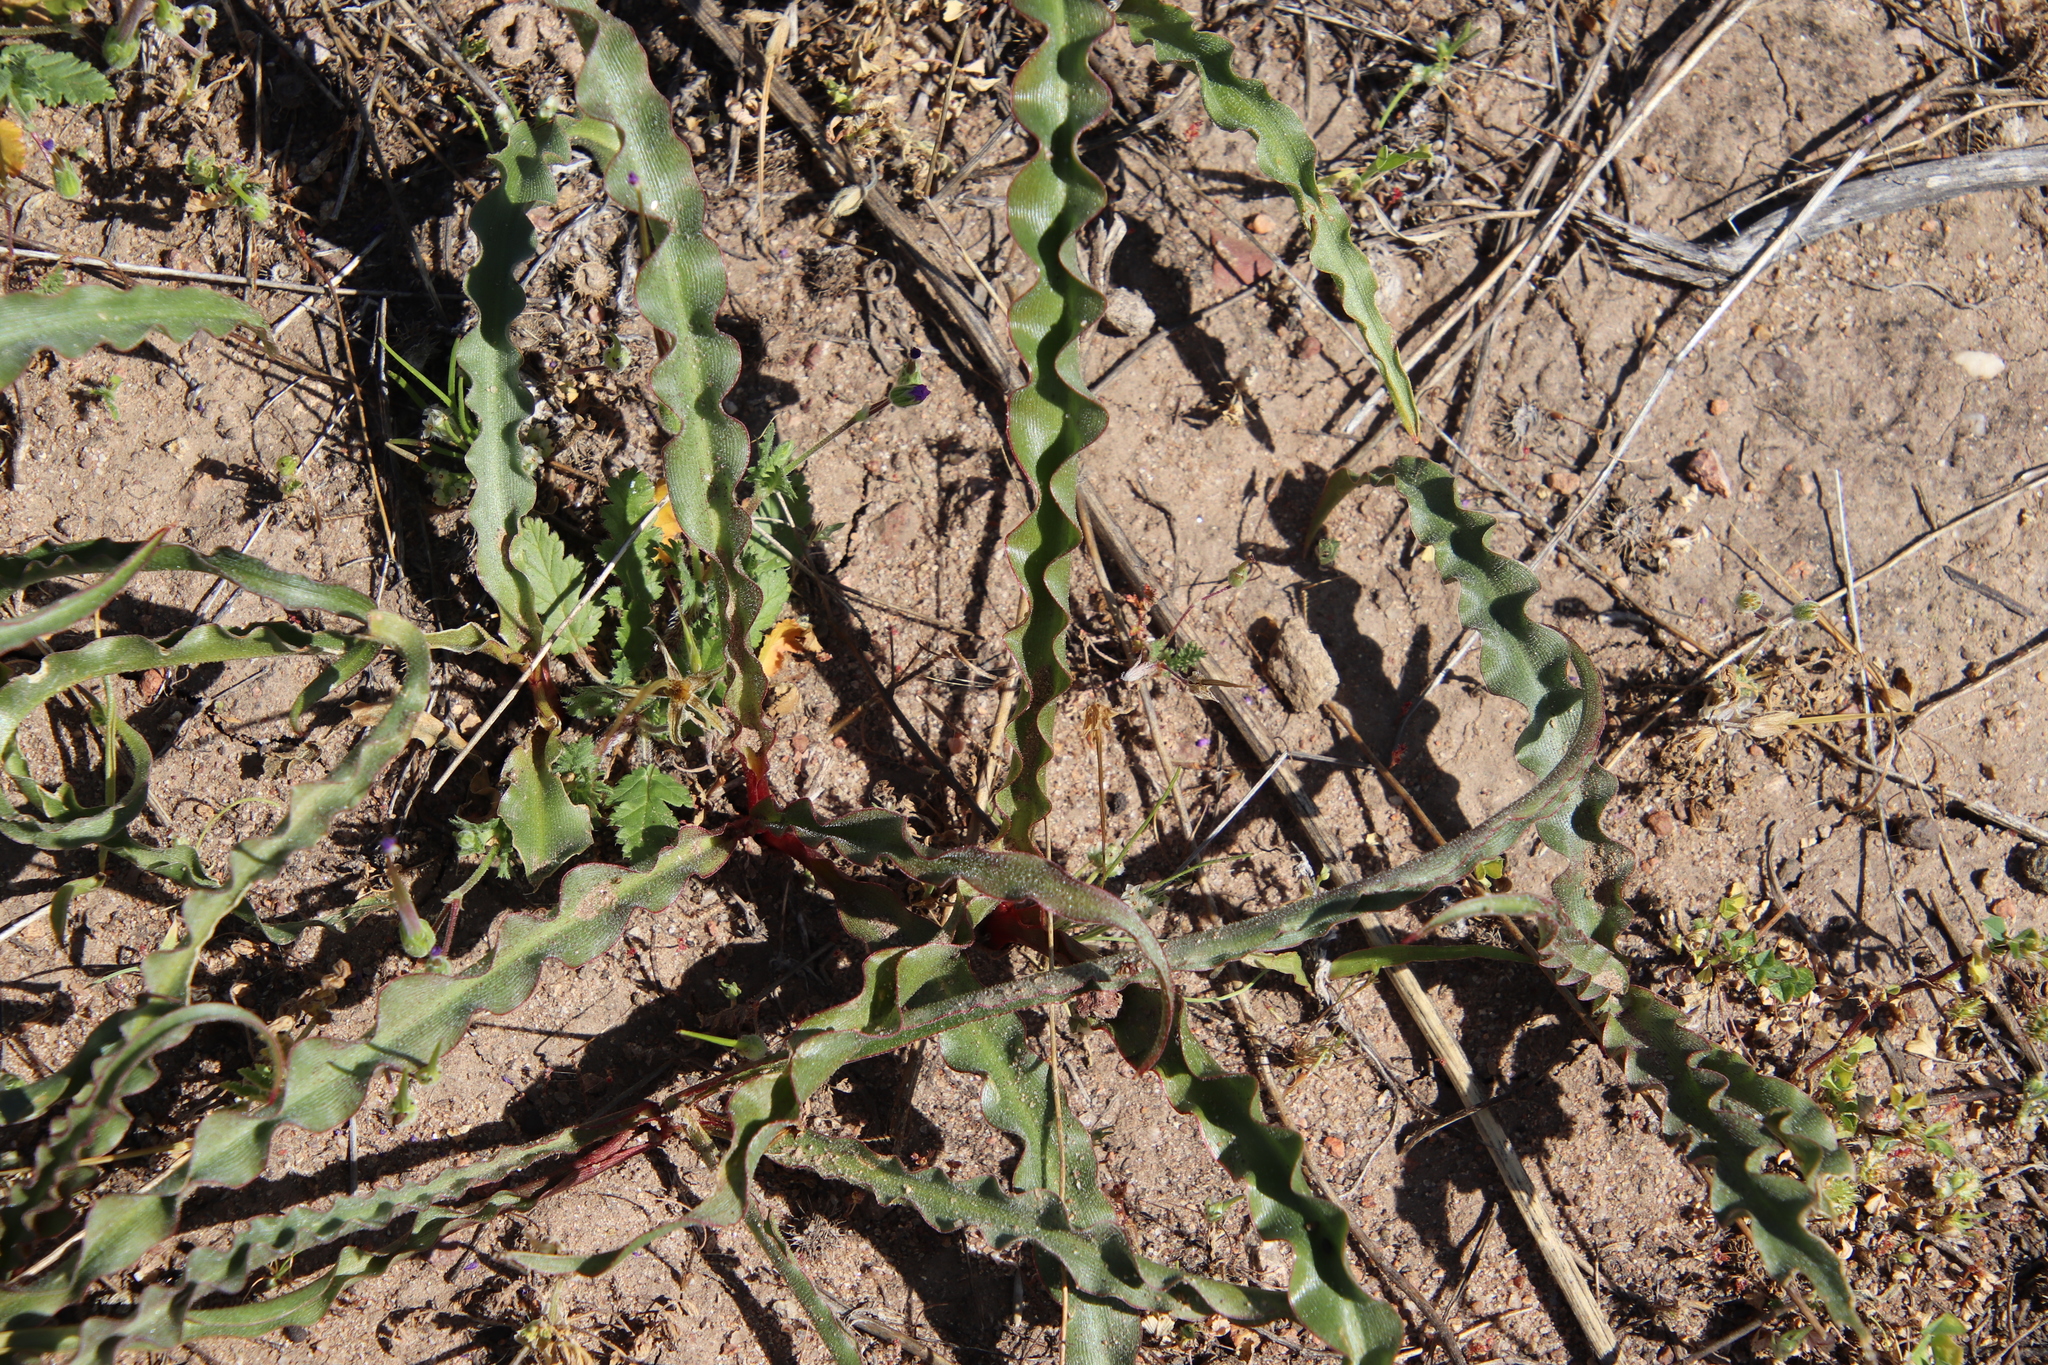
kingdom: Plantae
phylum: Tracheophyta
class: Liliopsida
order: Asparagales
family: Asparagaceae
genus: Hooveria
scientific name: Hooveria parviflora
